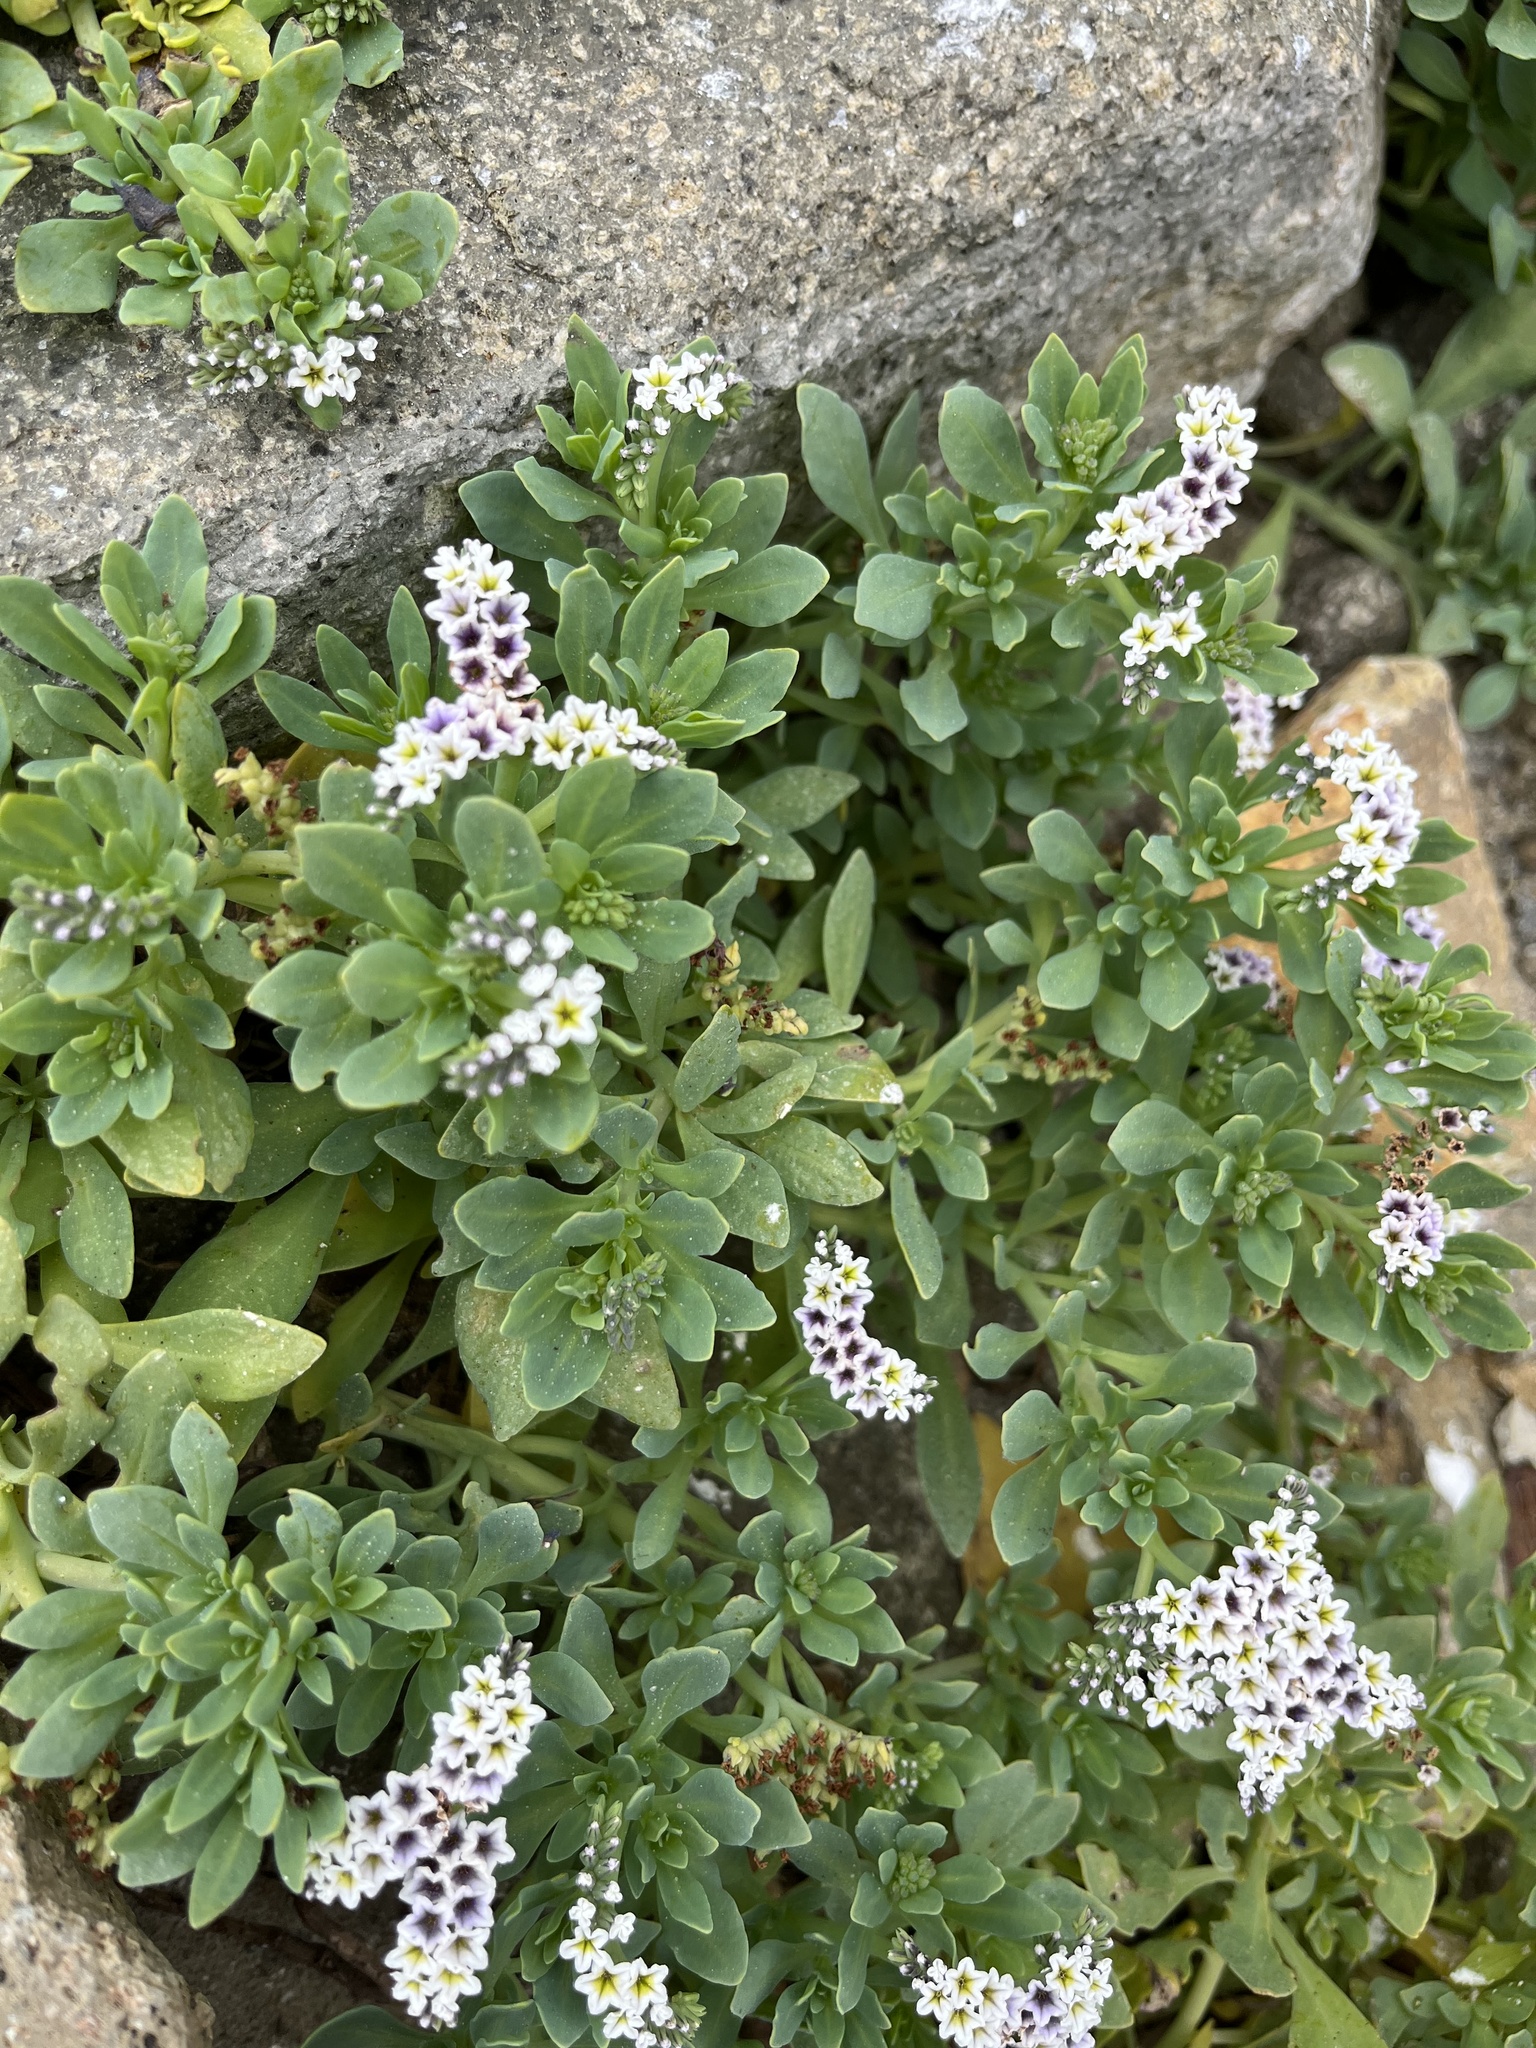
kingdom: Plantae
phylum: Tracheophyta
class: Magnoliopsida
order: Boraginales
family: Heliotropiaceae
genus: Heliotropium
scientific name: Heliotropium curassavicum
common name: Seaside heliotrope
